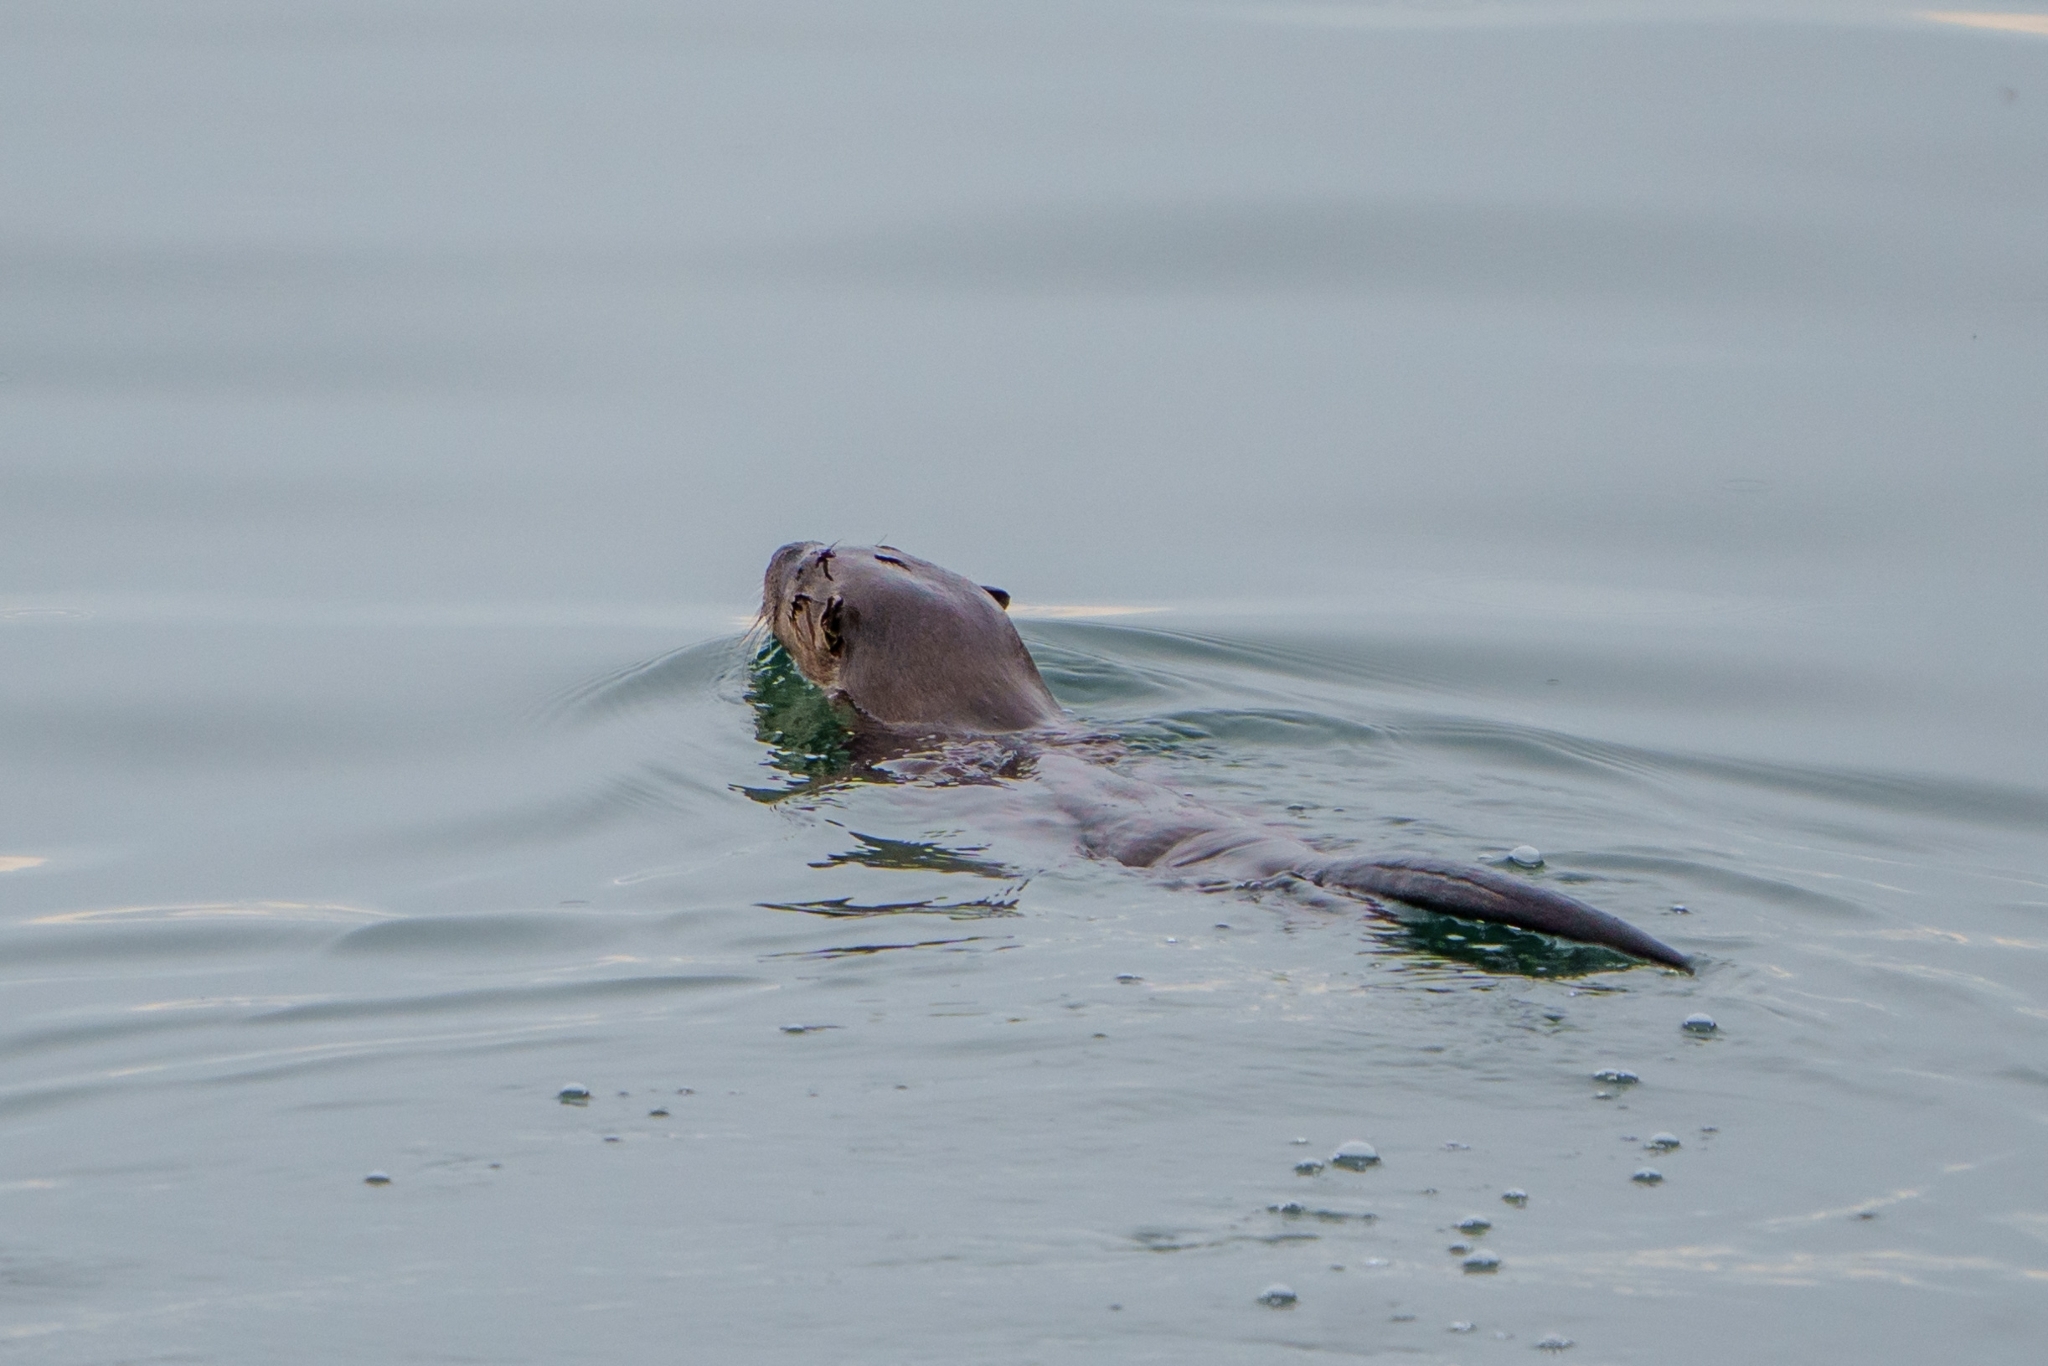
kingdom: Animalia
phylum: Chordata
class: Mammalia
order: Carnivora
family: Mustelidae
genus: Lontra
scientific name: Lontra canadensis
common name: North american river otter
